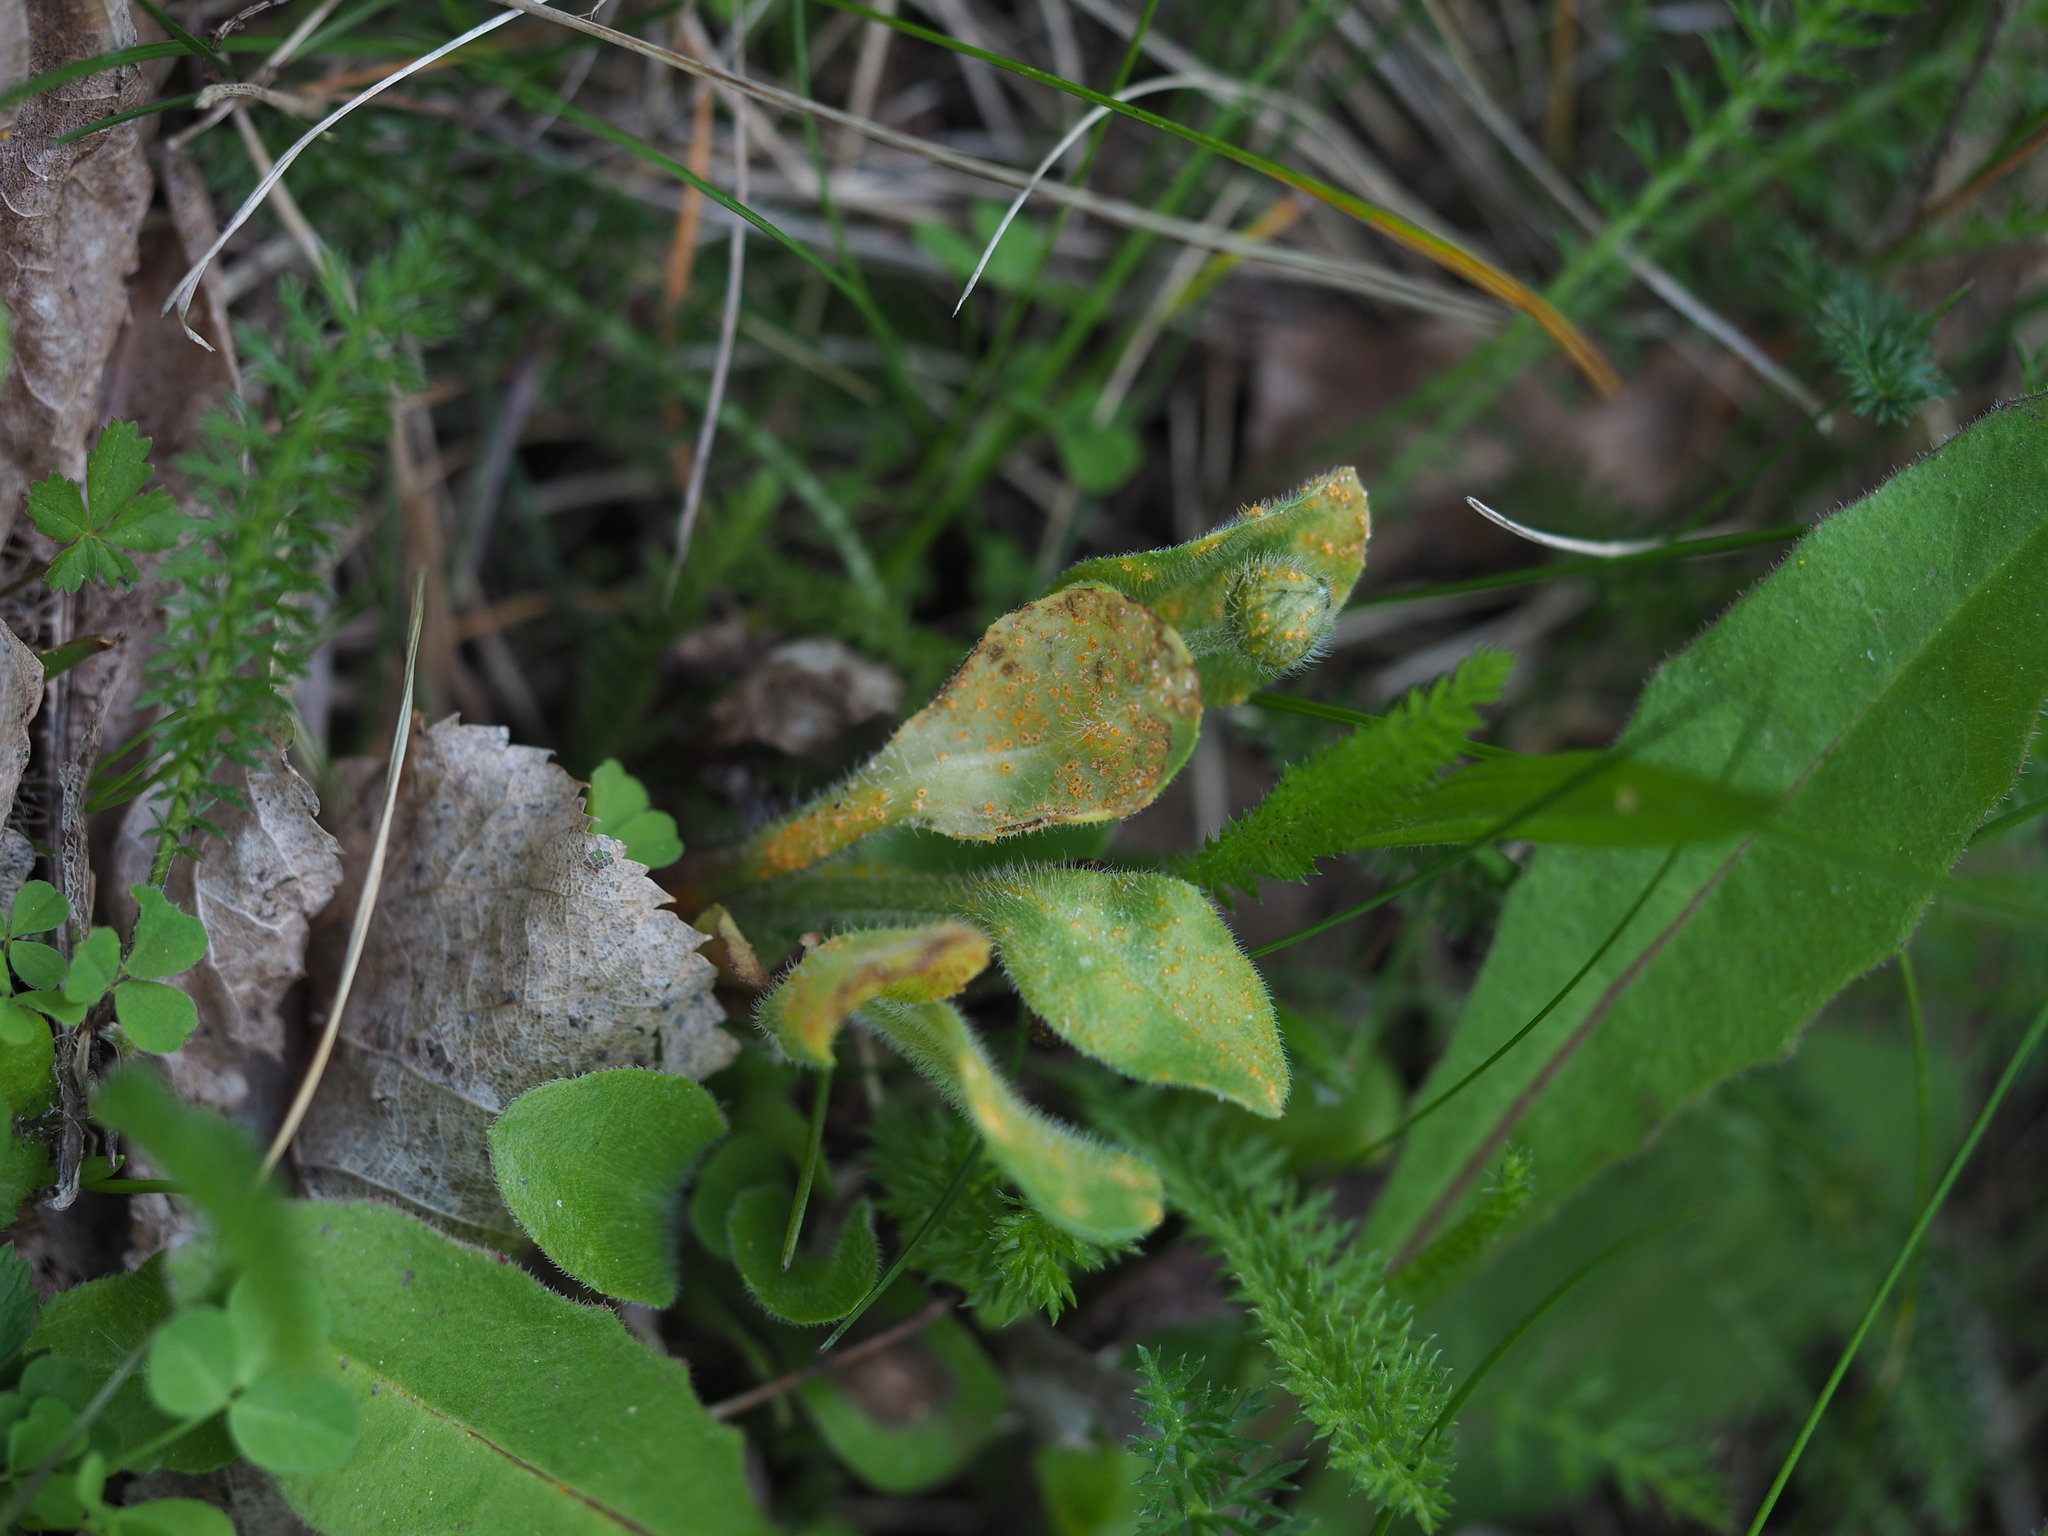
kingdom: Fungi
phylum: Basidiomycota
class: Pucciniomycetes
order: Pucciniales
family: Pucciniaceae
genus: Puccinia
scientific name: Puccinia lagenophorae
